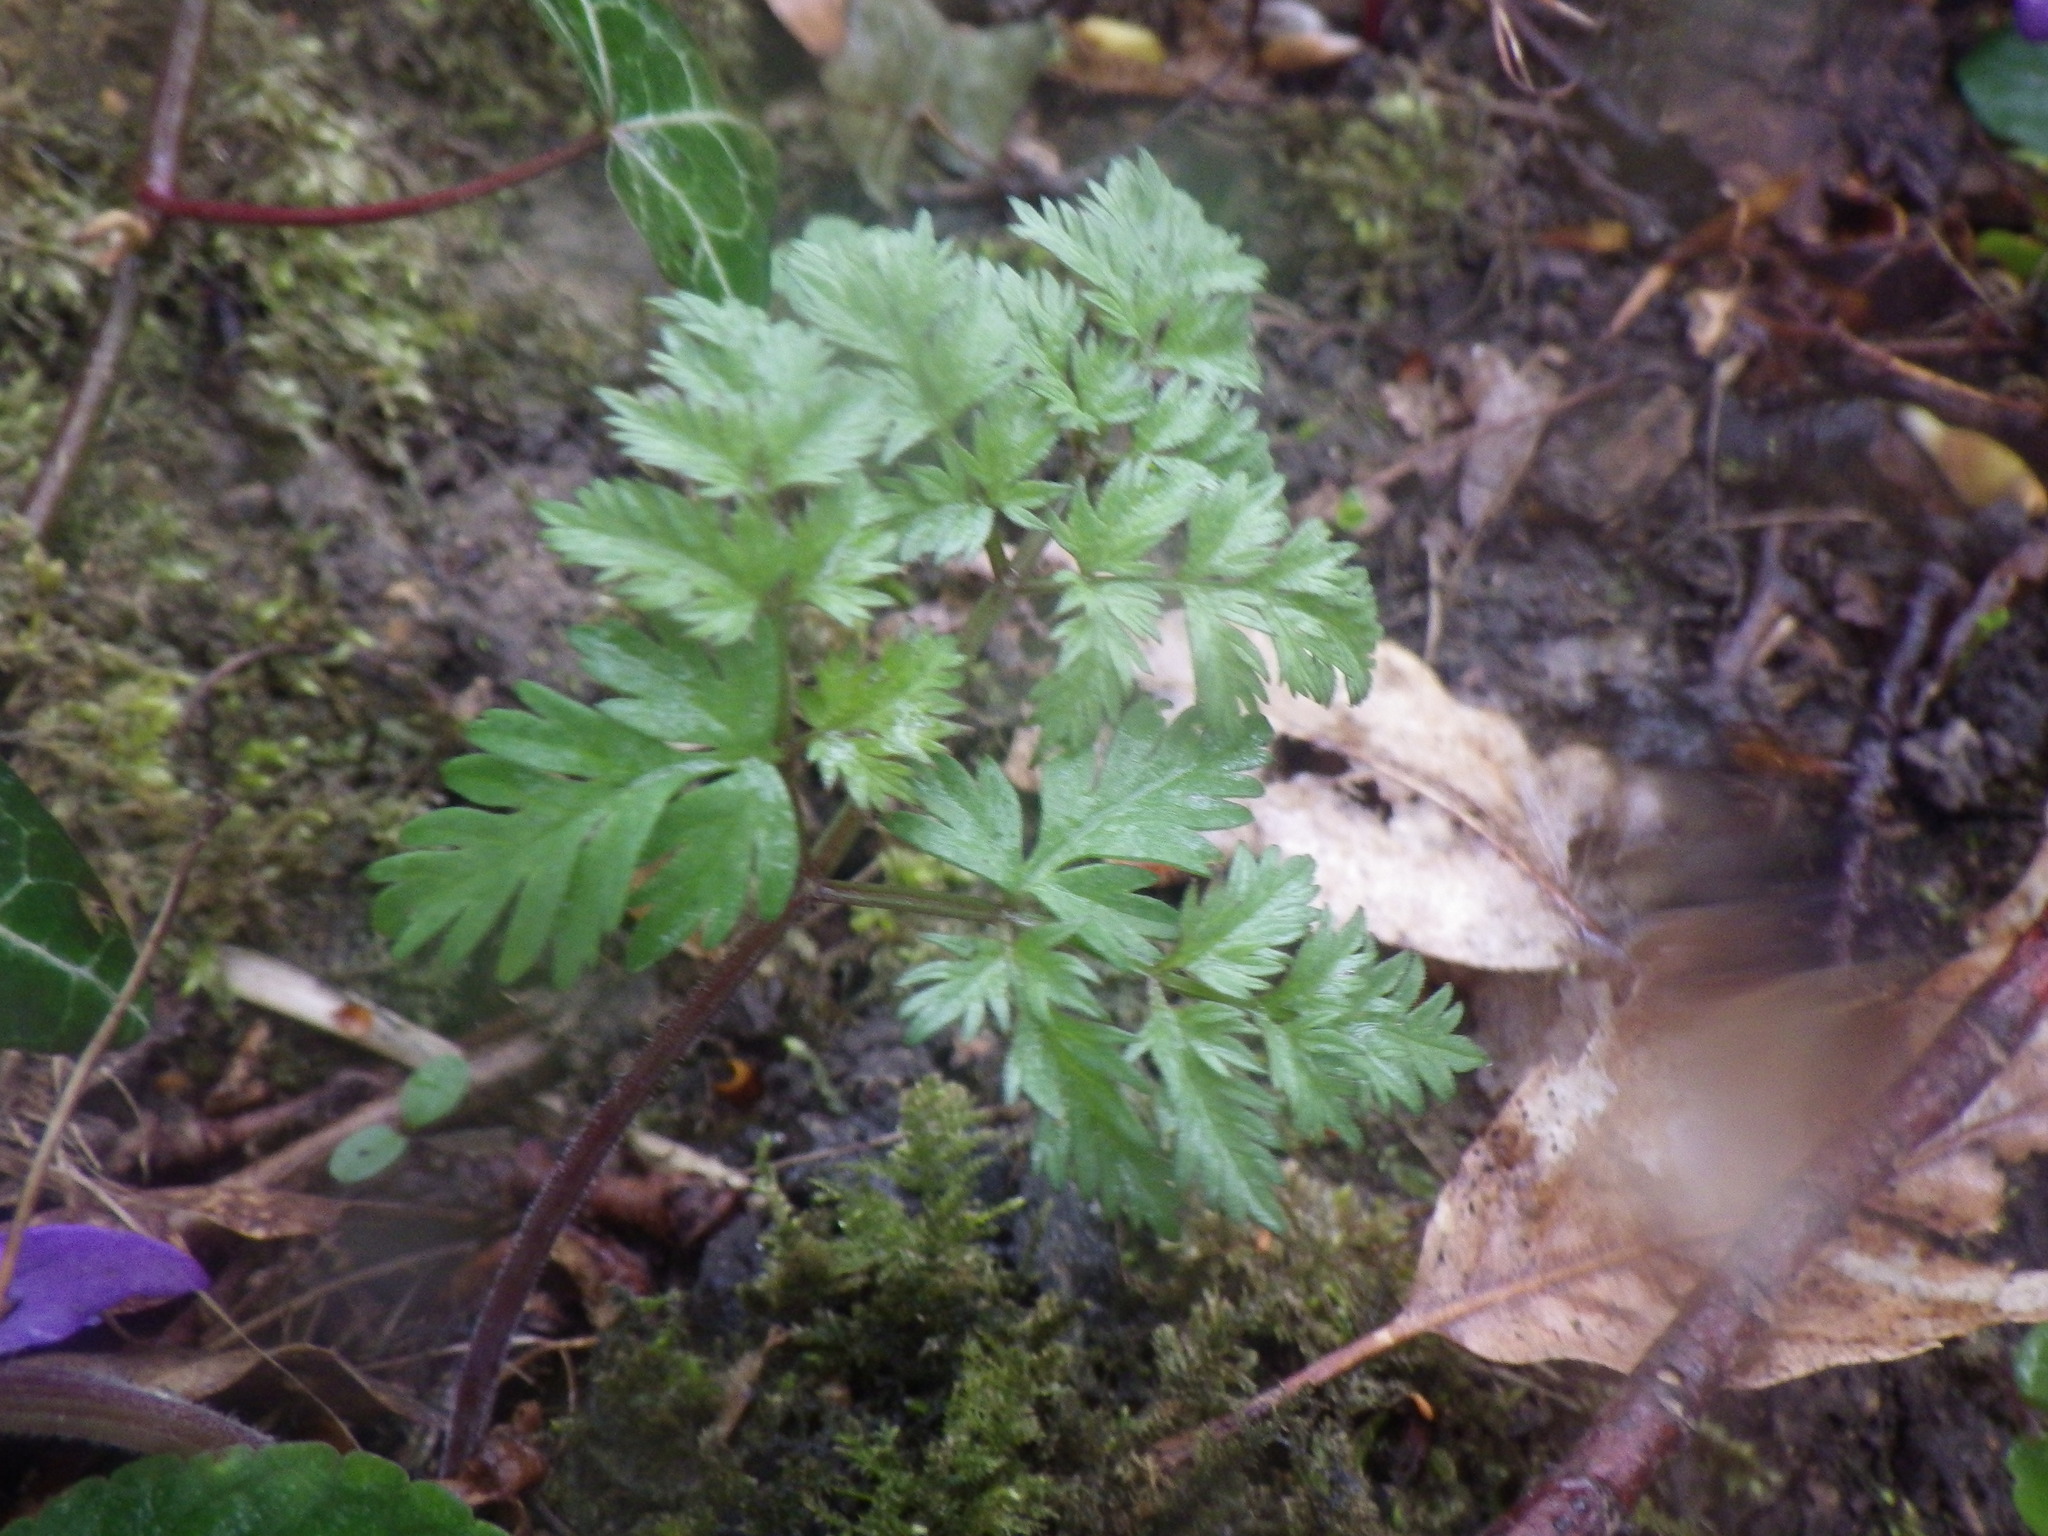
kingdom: Plantae
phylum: Tracheophyta
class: Magnoliopsida
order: Apiales
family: Apiaceae
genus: Anthriscus
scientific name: Anthriscus sylvestris
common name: Cow parsley
